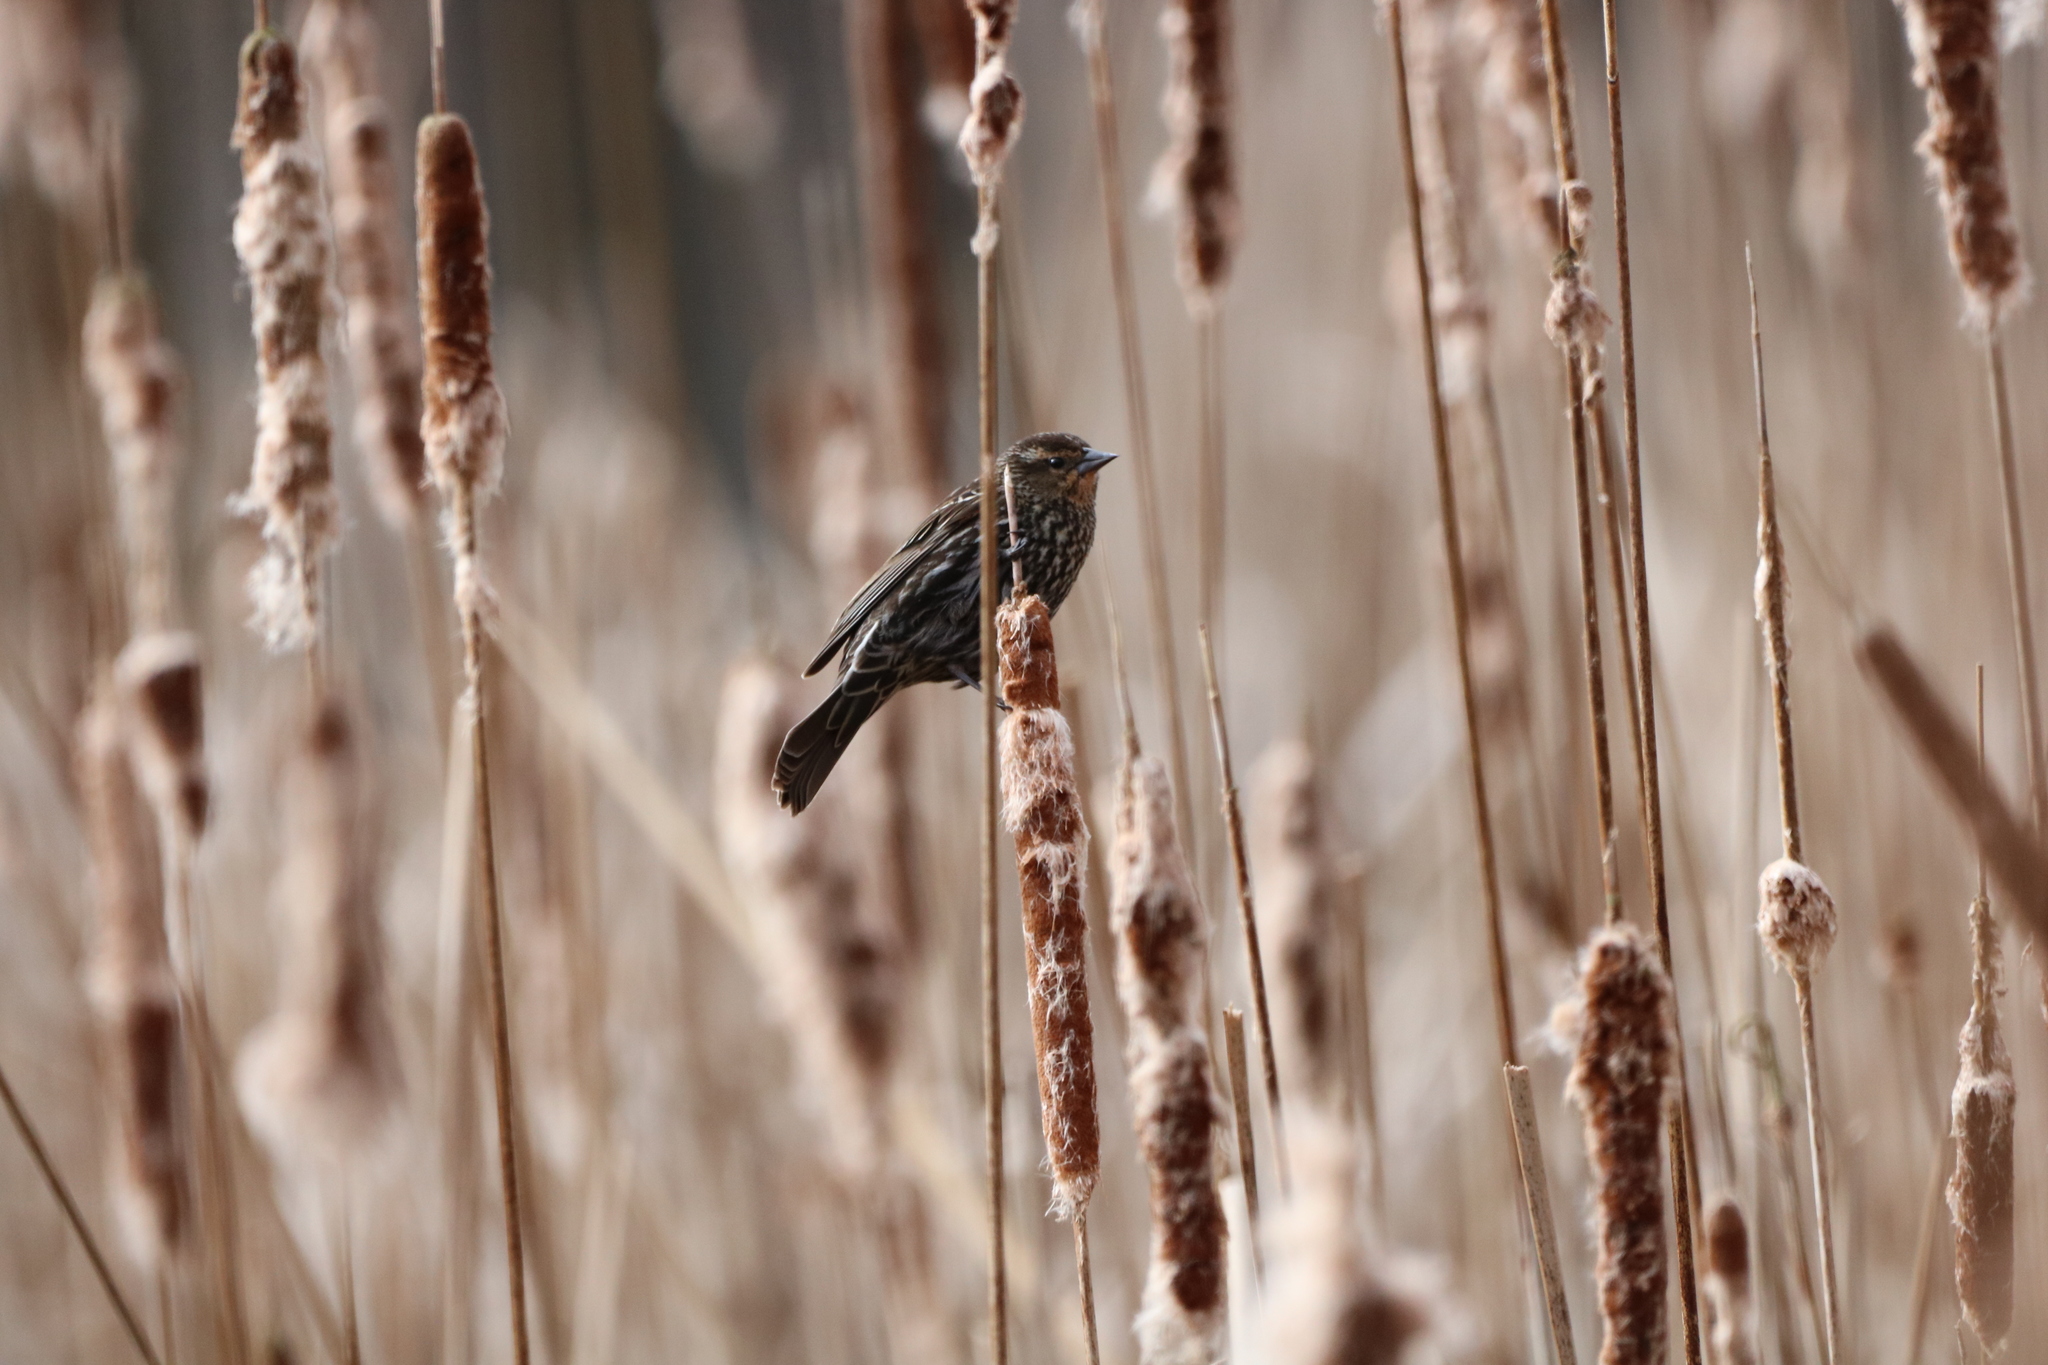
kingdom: Animalia
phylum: Chordata
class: Aves
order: Passeriformes
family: Icteridae
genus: Agelaius
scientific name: Agelaius phoeniceus
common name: Red-winged blackbird
